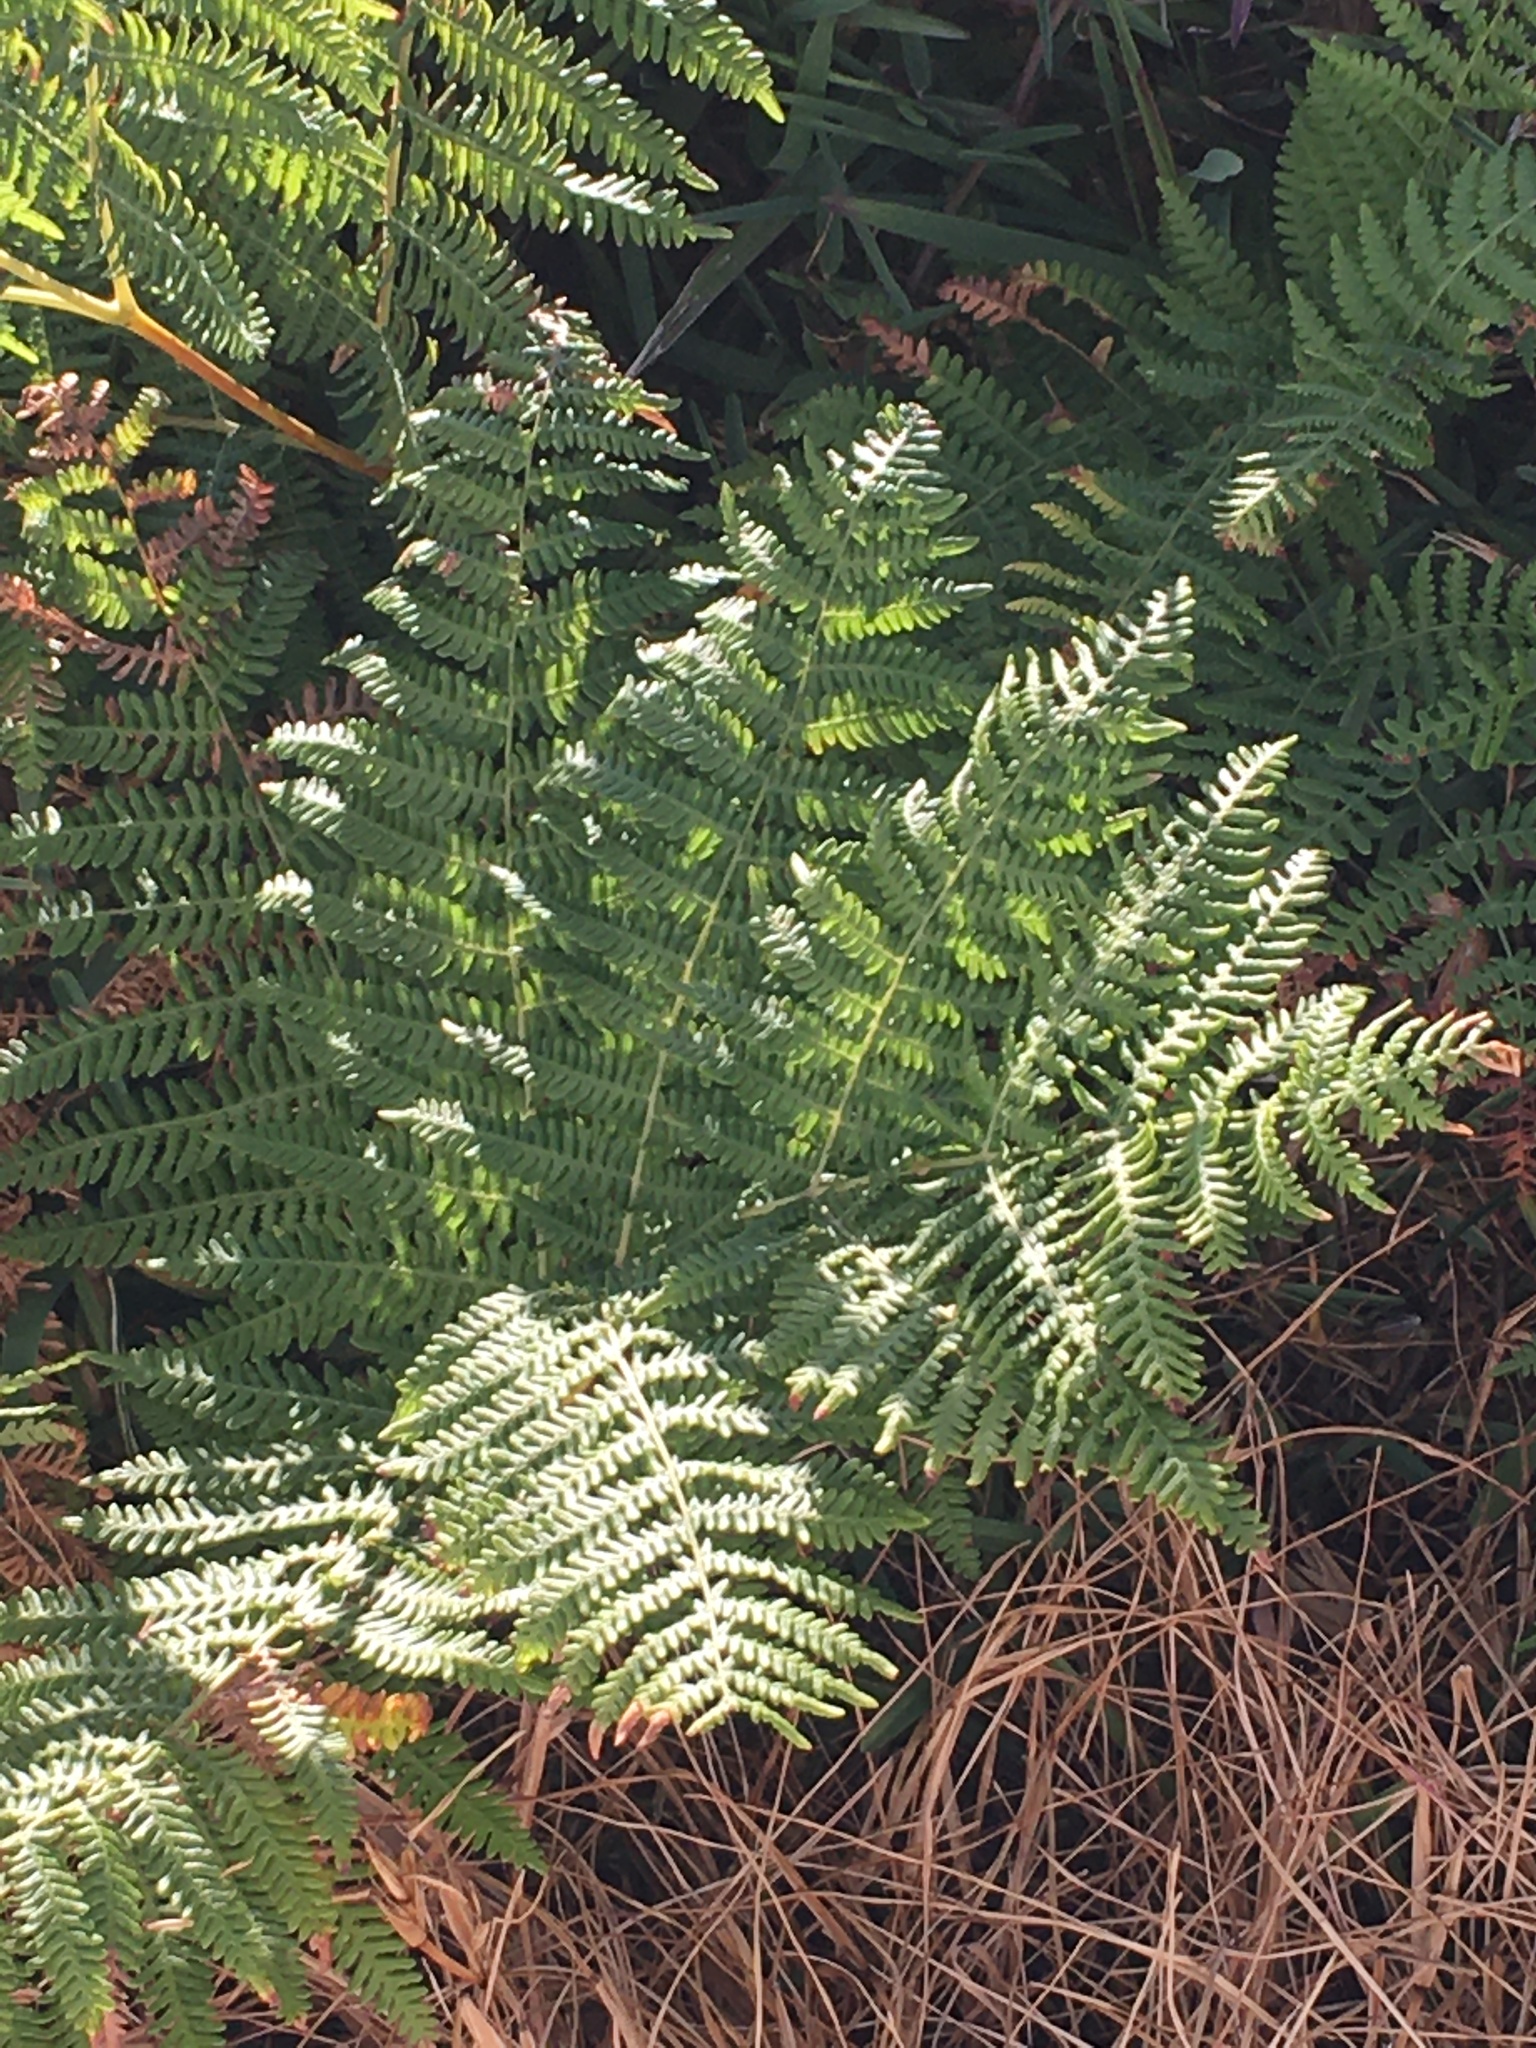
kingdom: Plantae
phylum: Tracheophyta
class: Polypodiopsida
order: Polypodiales
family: Dennstaedtiaceae
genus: Pteridium
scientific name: Pteridium aquilinum
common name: Bracken
